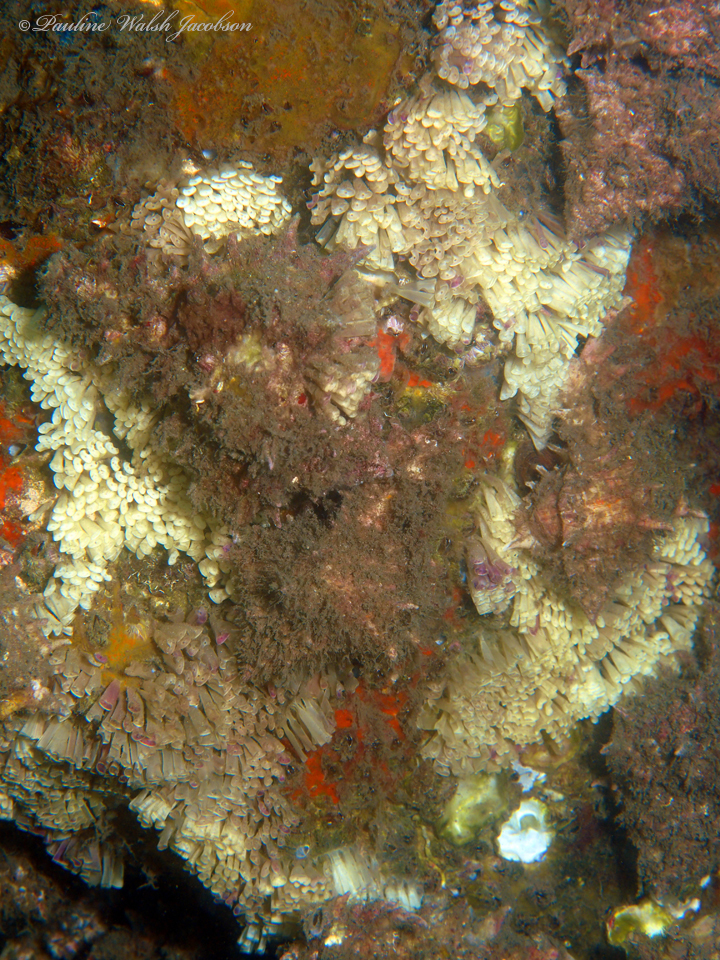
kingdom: Animalia
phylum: Mollusca
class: Gastropoda
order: Neogastropoda
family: Muricidae
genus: Hexaplex
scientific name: Hexaplex fulvescens
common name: Tawny murex
